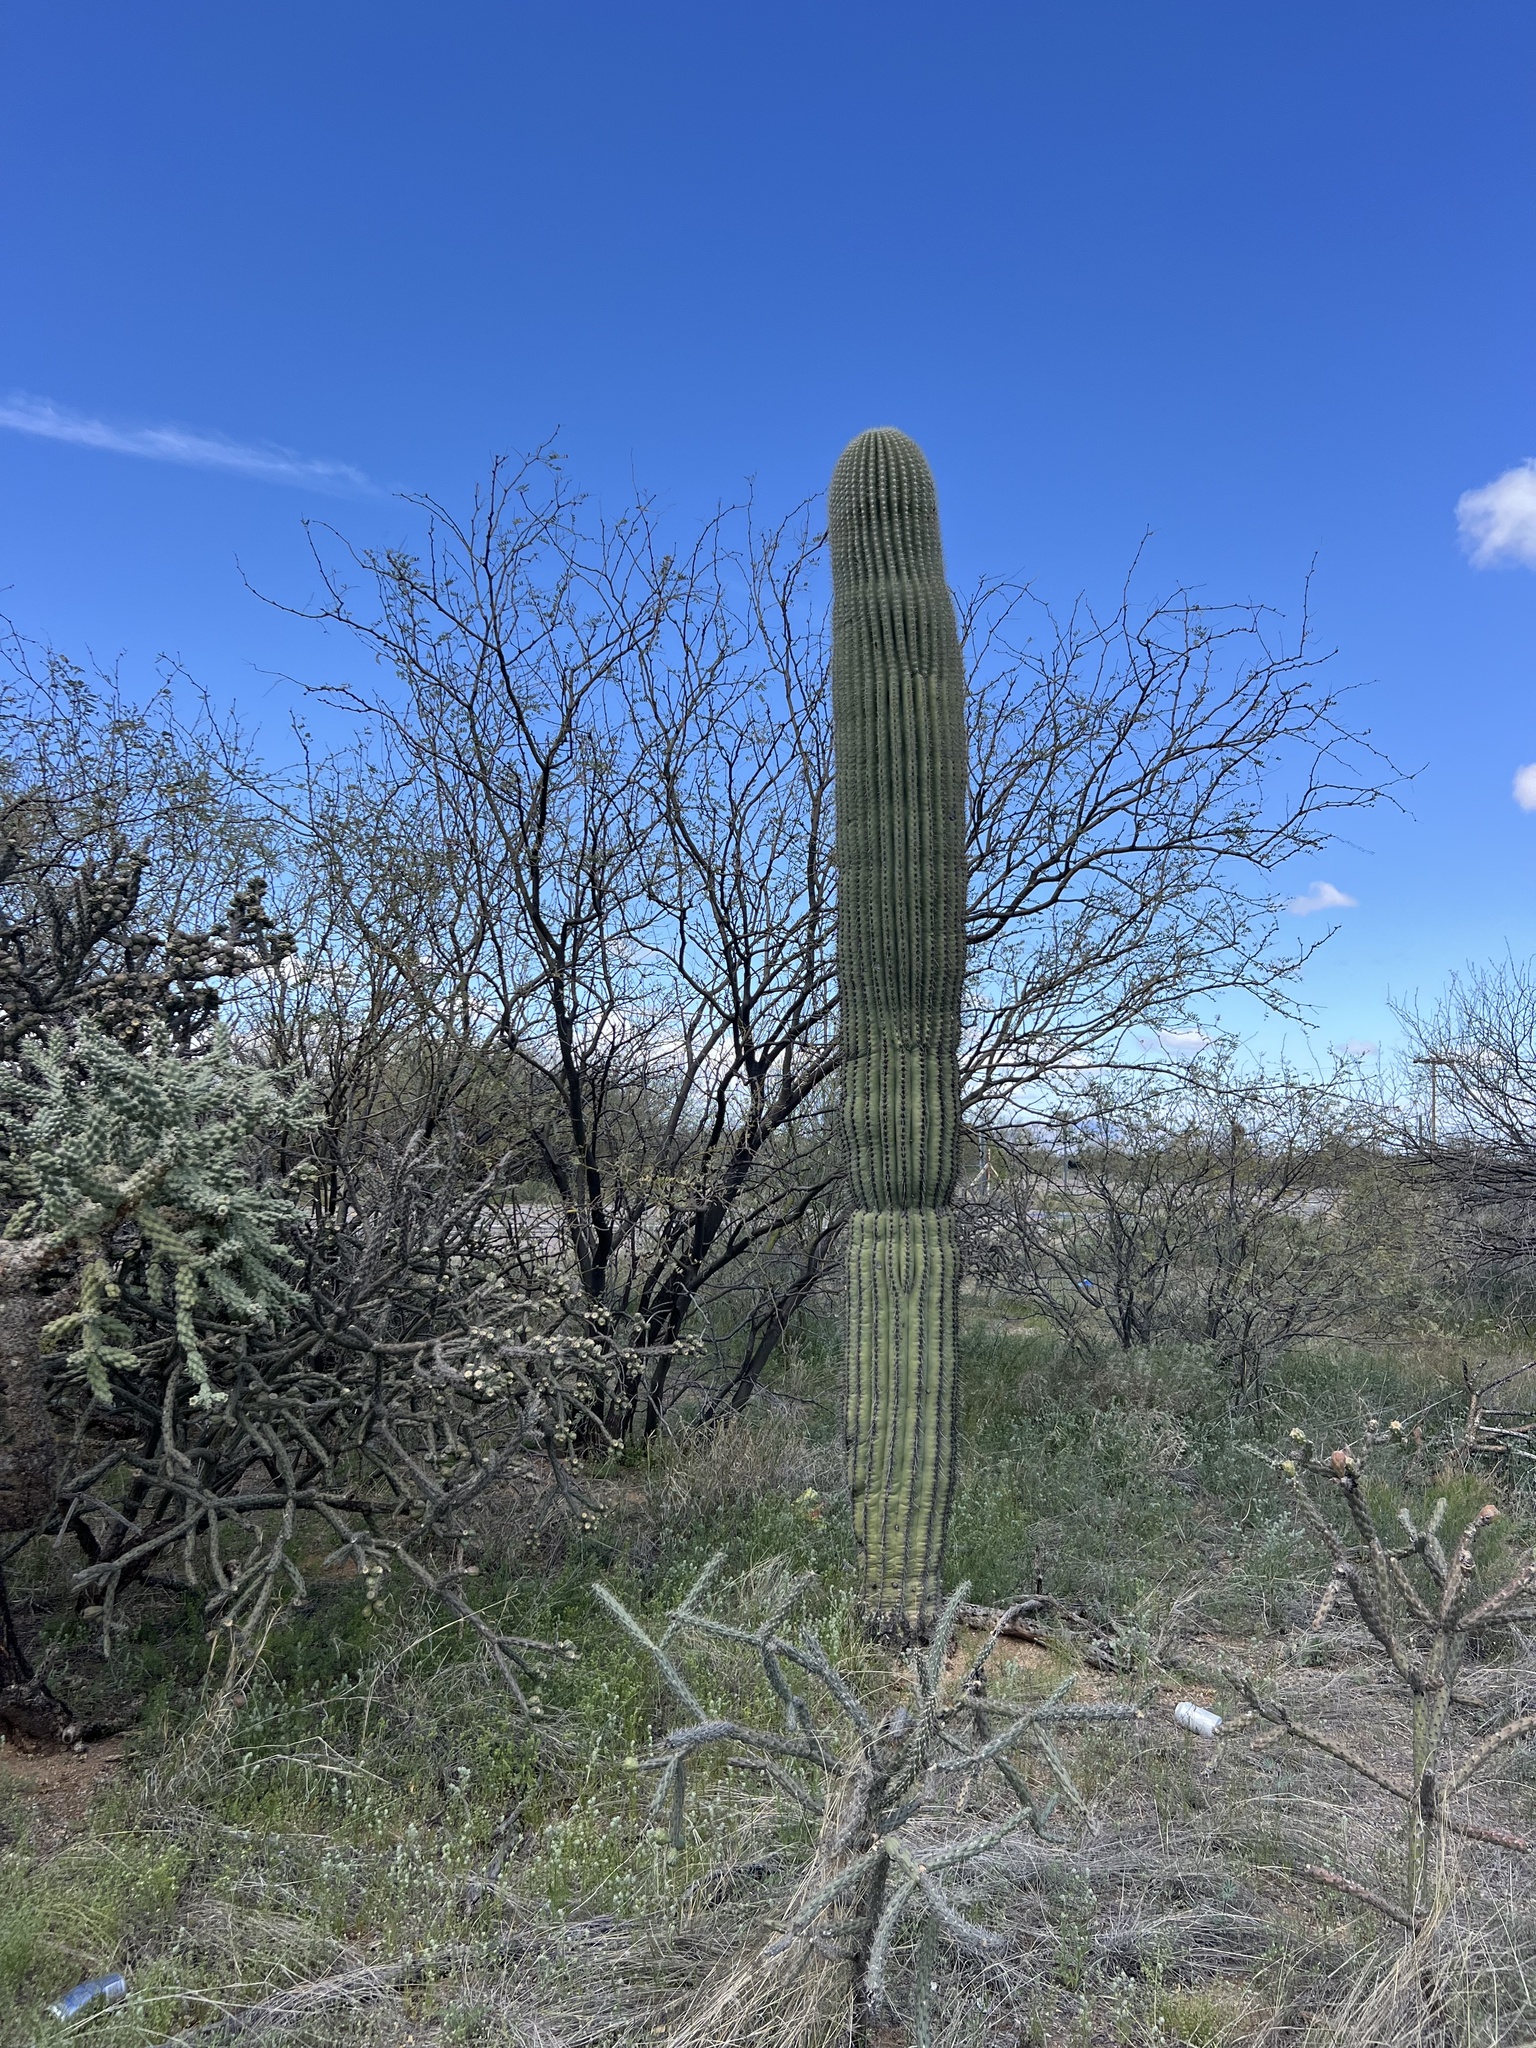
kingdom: Plantae
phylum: Tracheophyta
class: Magnoliopsida
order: Caryophyllales
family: Cactaceae
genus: Carnegiea
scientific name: Carnegiea gigantea
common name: Saguaro
